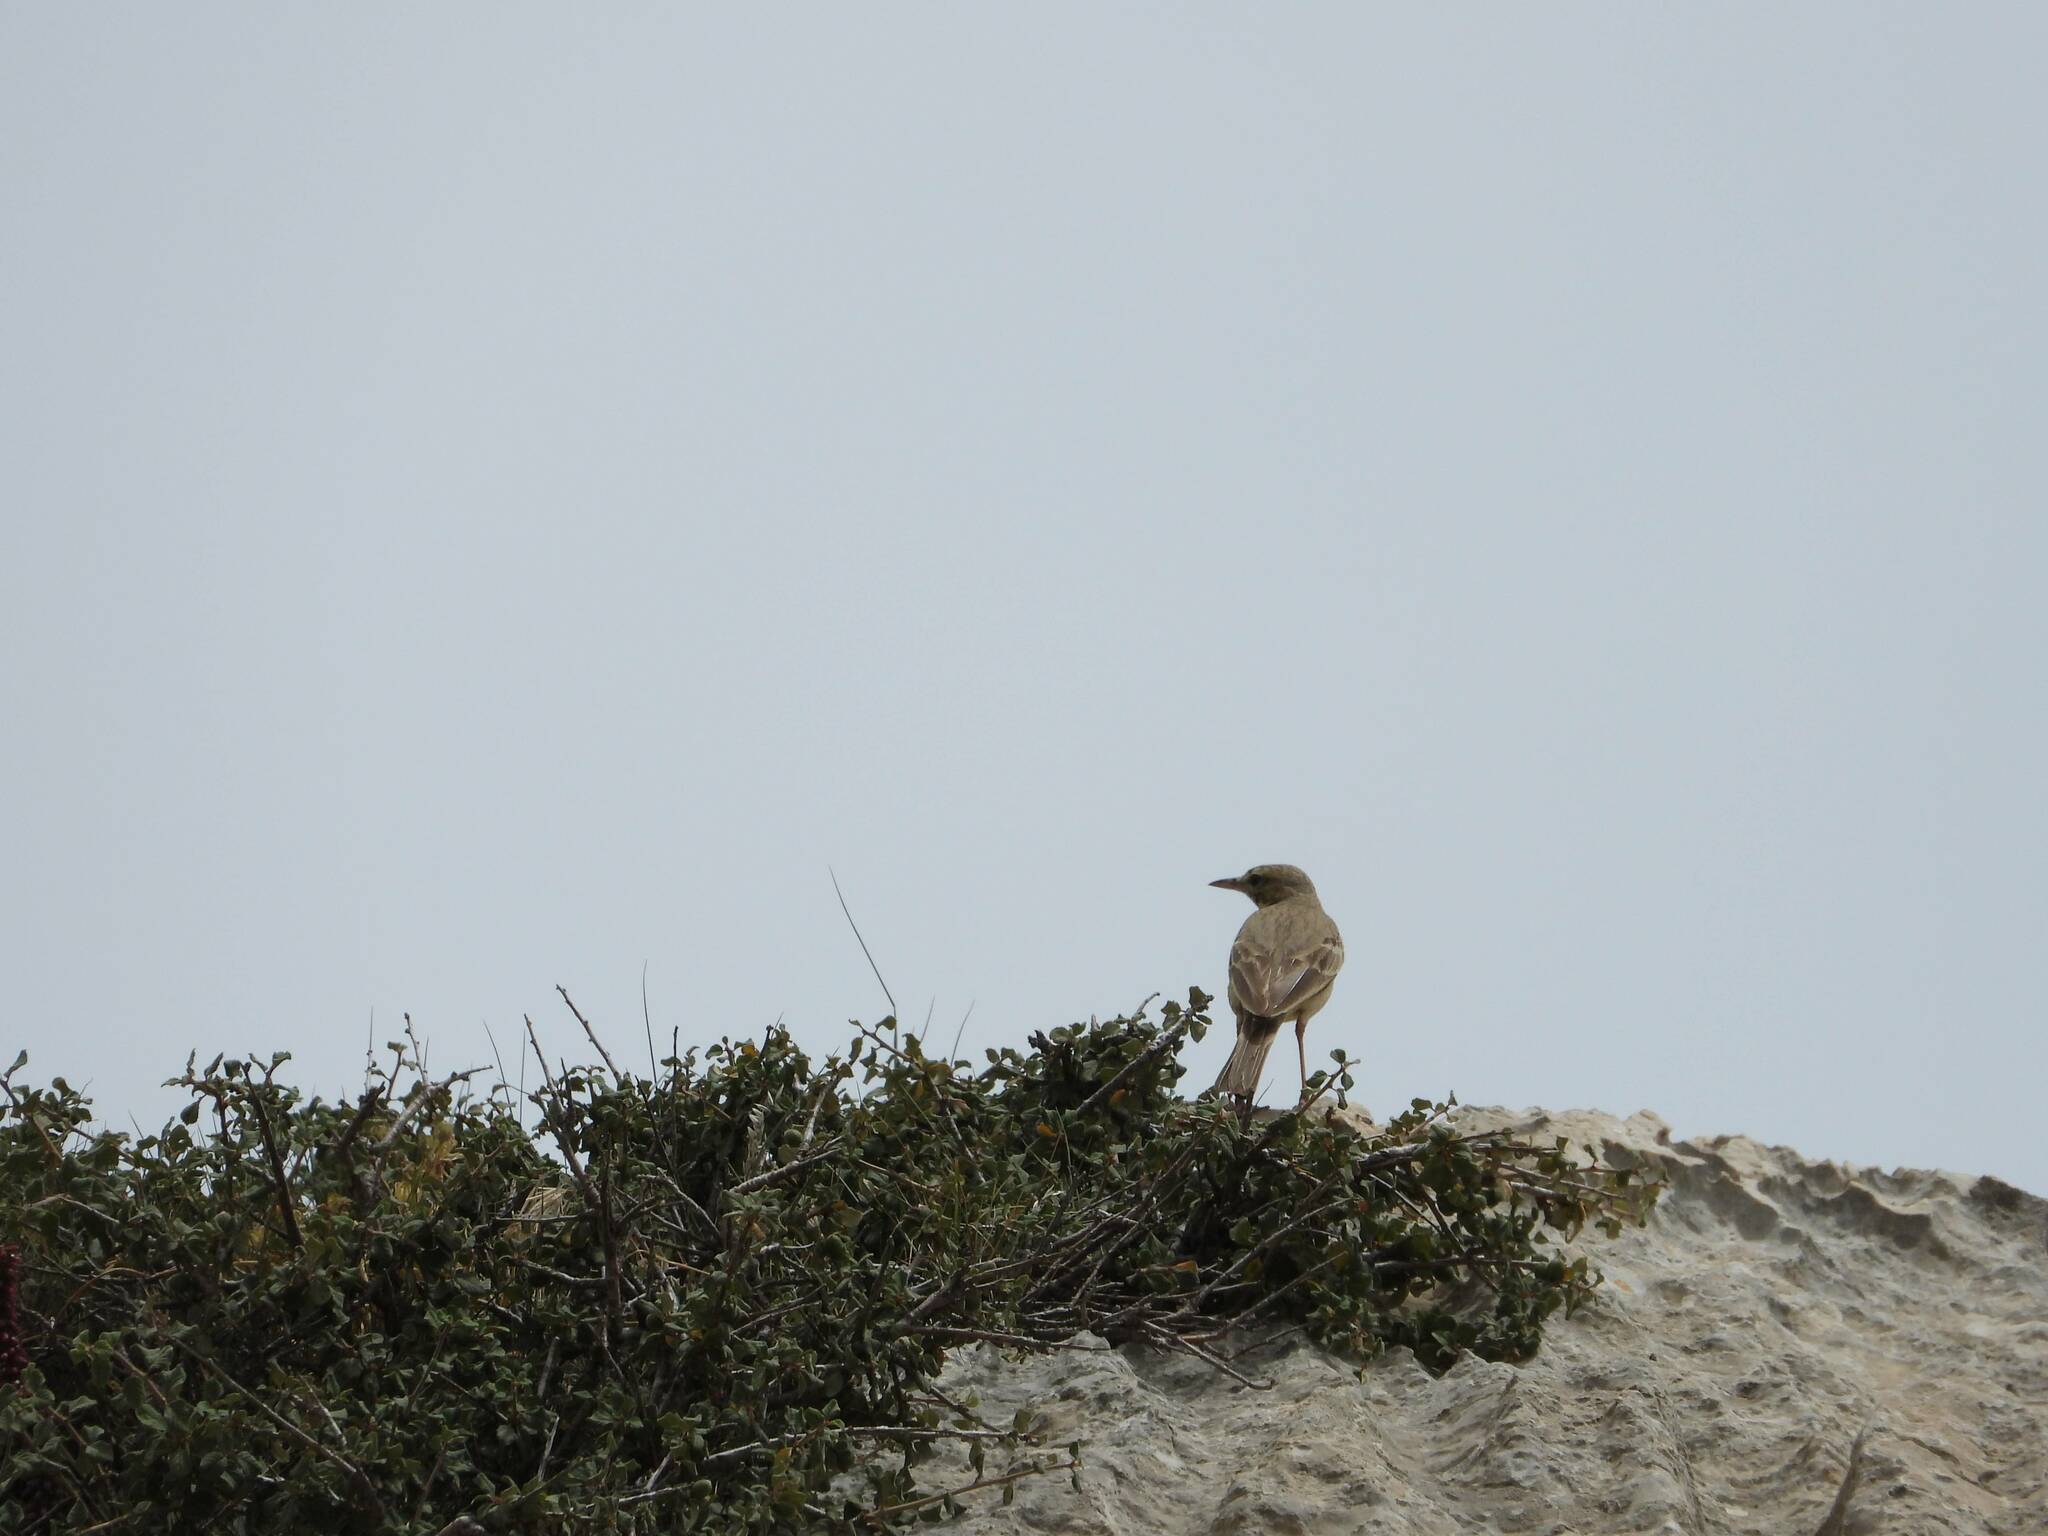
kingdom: Animalia
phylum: Chordata
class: Aves
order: Passeriformes
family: Motacillidae
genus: Anthus
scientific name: Anthus campestris
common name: Tawny pipit
